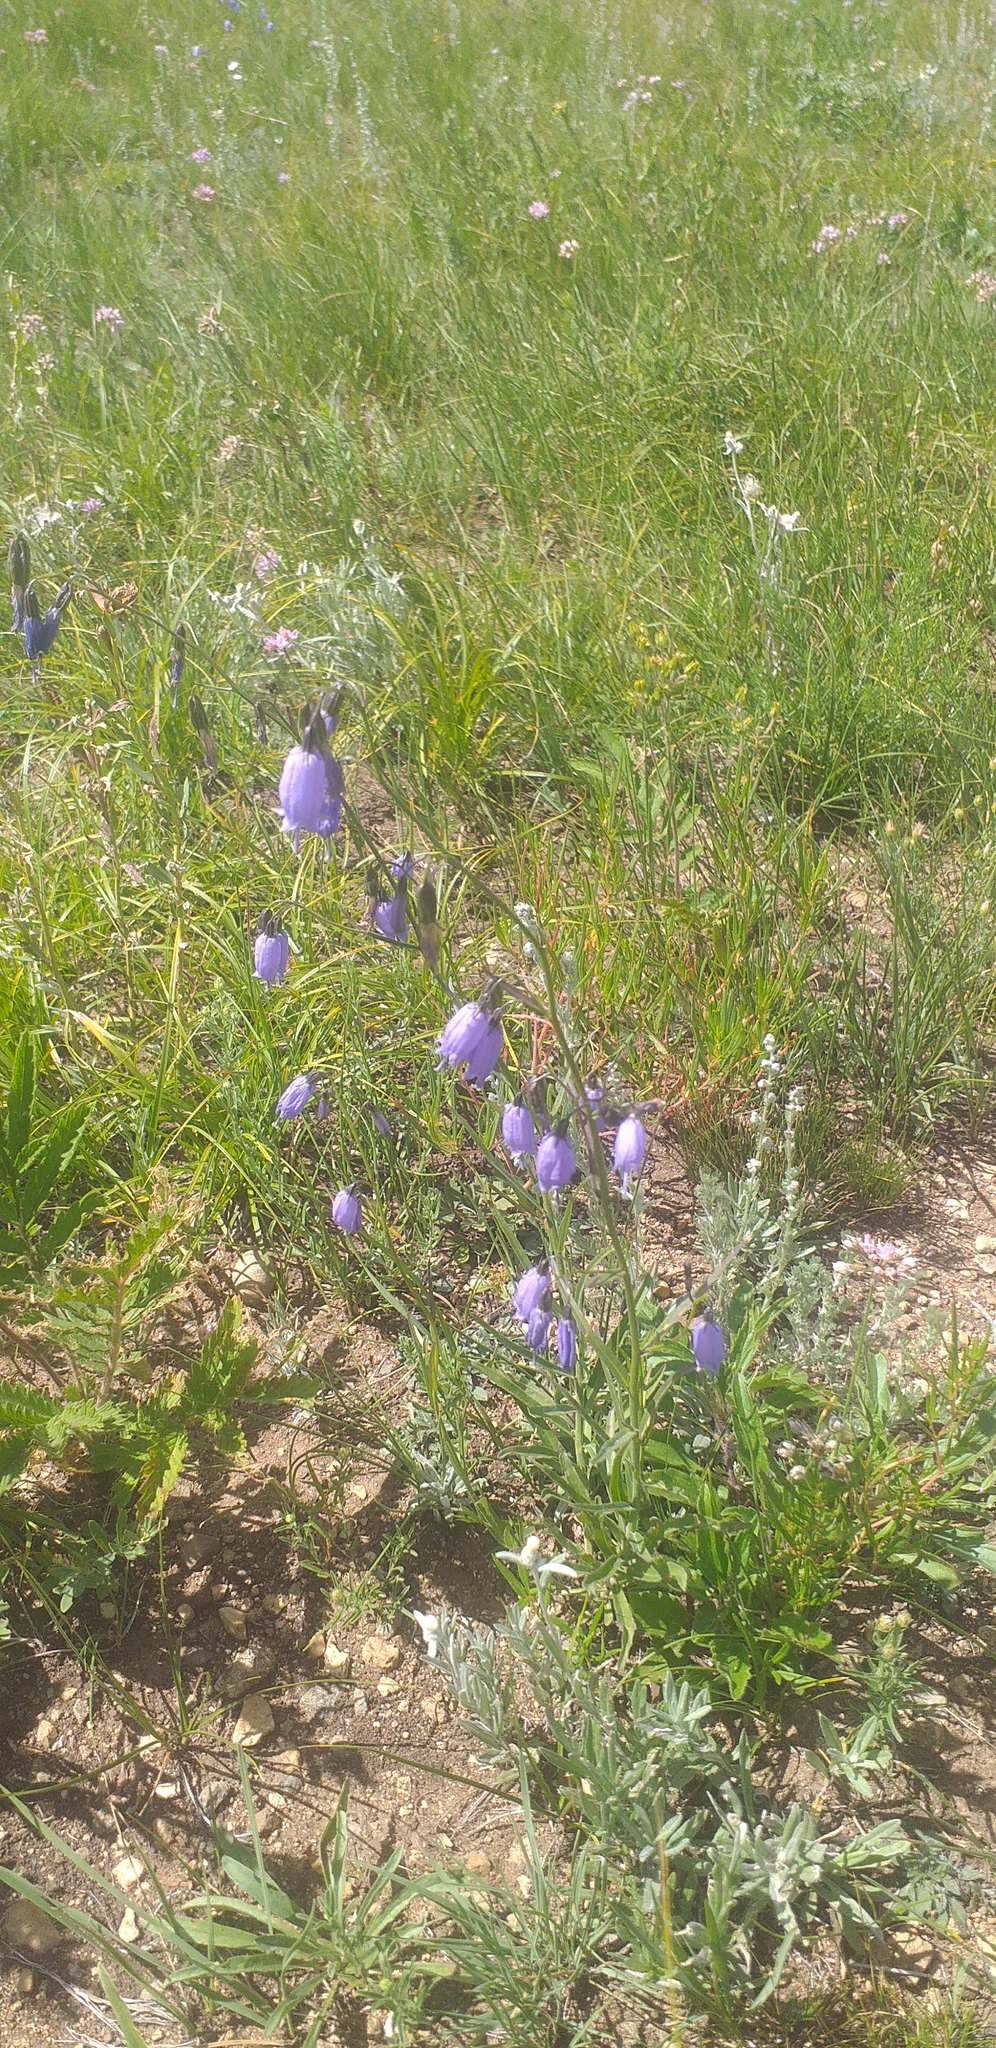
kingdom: Plantae
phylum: Tracheophyta
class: Magnoliopsida
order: Asterales
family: Campanulaceae
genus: Adenophora
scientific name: Adenophora stenanthina
